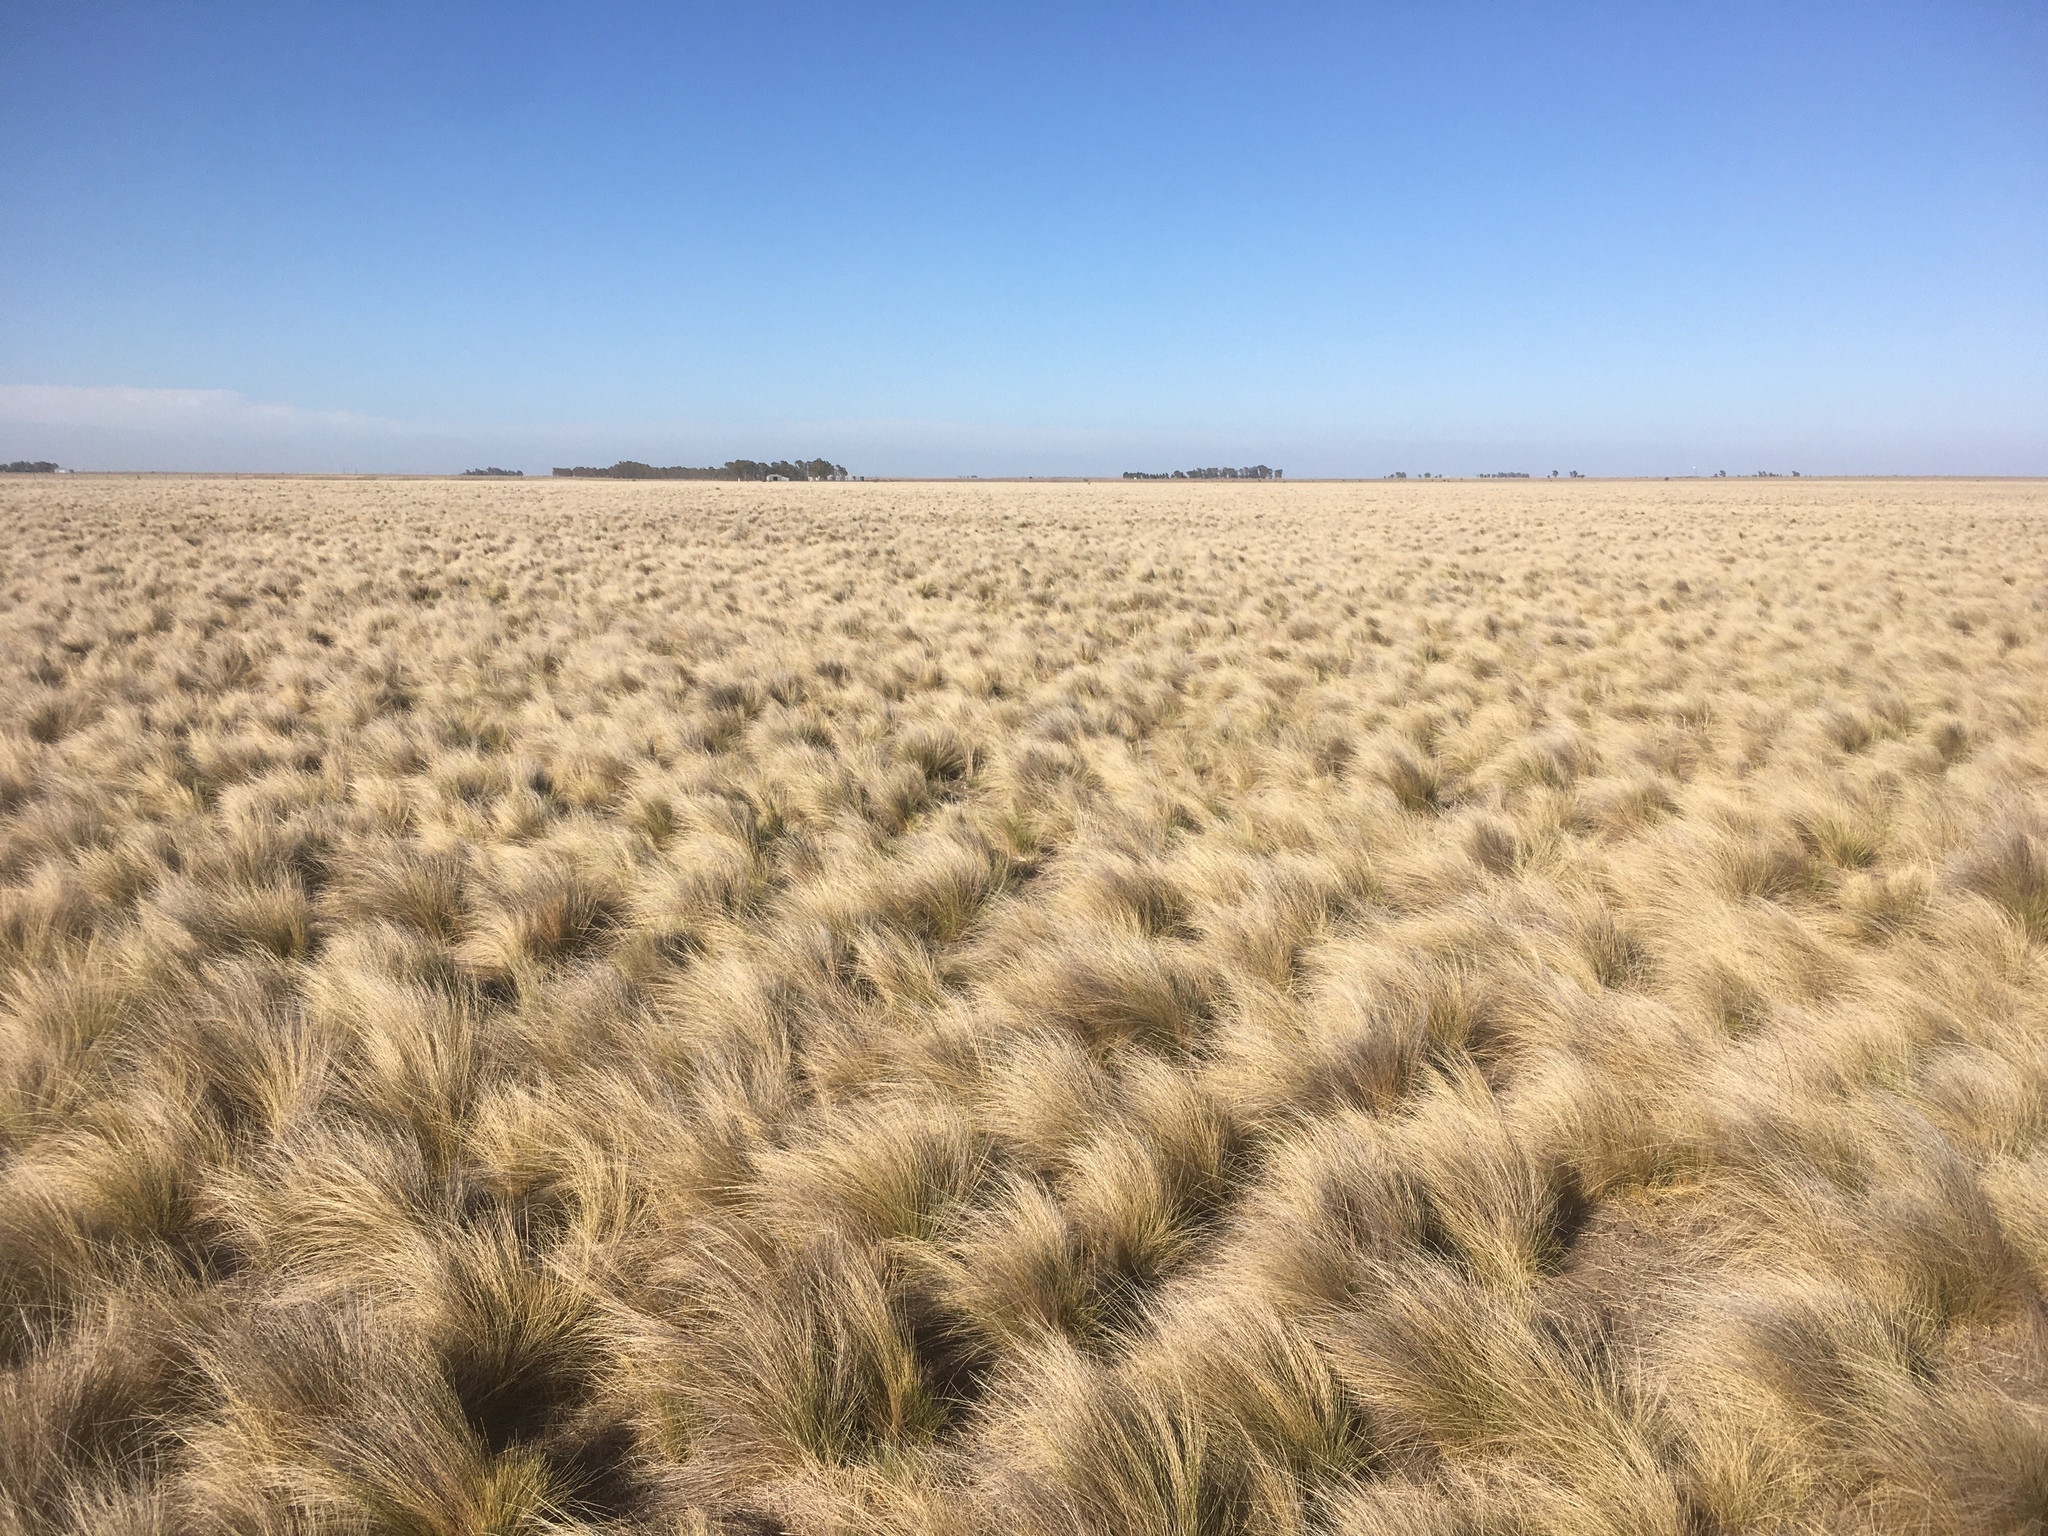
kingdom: Plantae
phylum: Tracheophyta
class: Liliopsida
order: Poales
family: Poaceae
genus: Nassella
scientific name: Nassella trichotoma
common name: Serrated tussock grass
